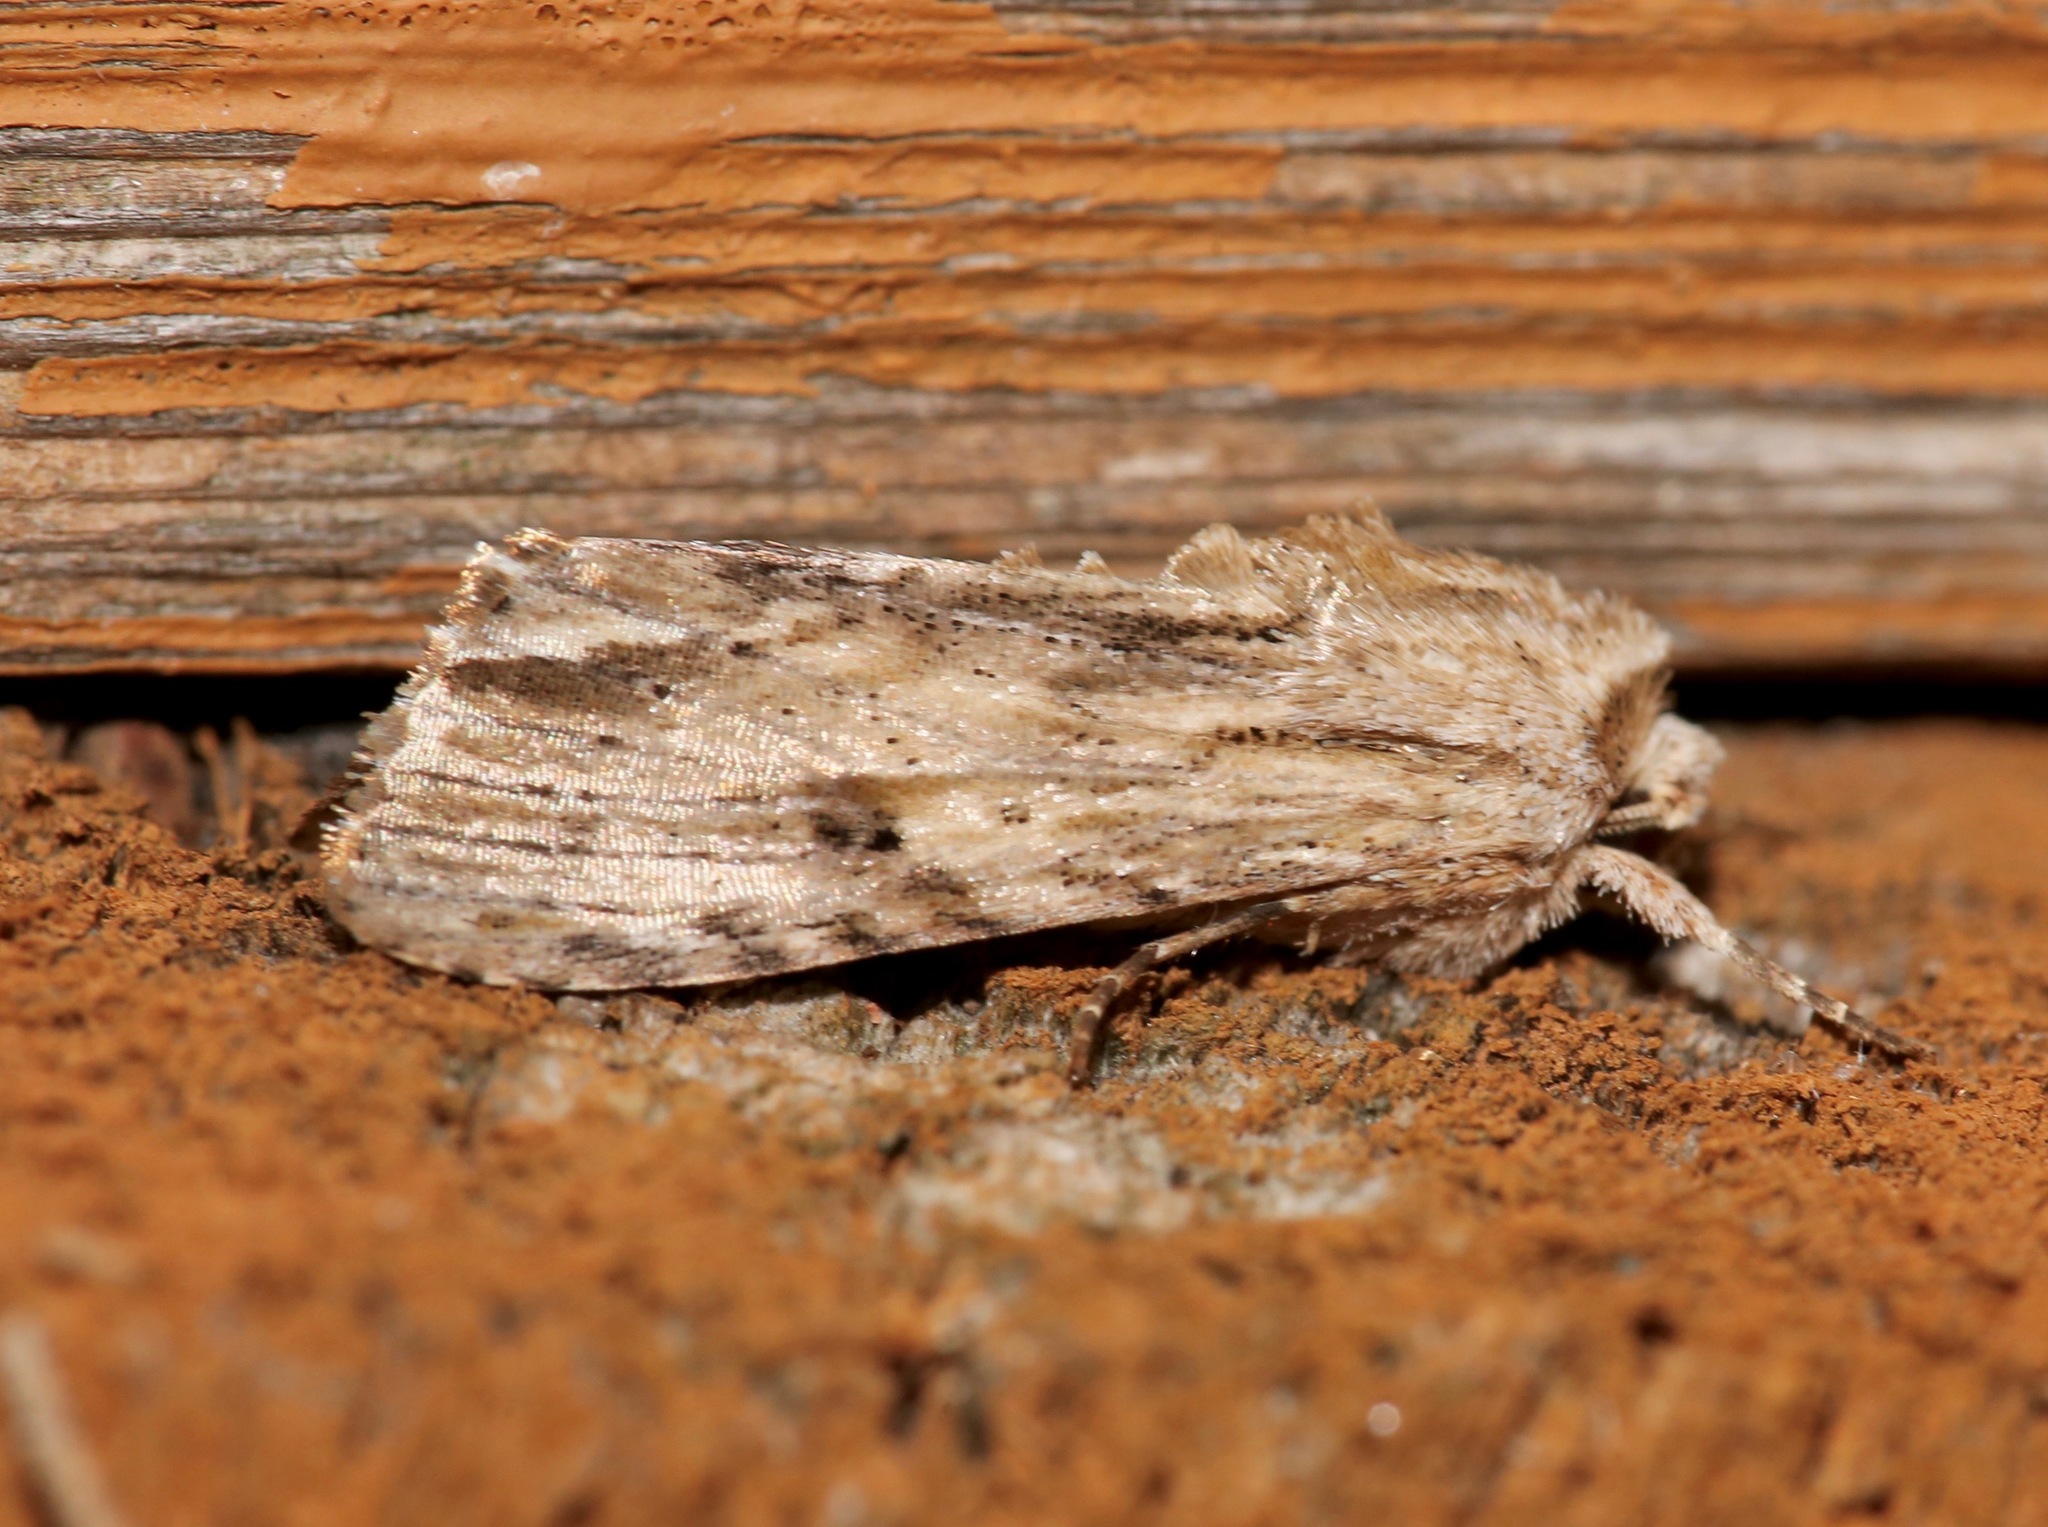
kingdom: Animalia
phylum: Arthropoda
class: Insecta
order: Lepidoptera
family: Noctuidae
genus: Spodoptera
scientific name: Spodoptera eridania
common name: Southern army worm
